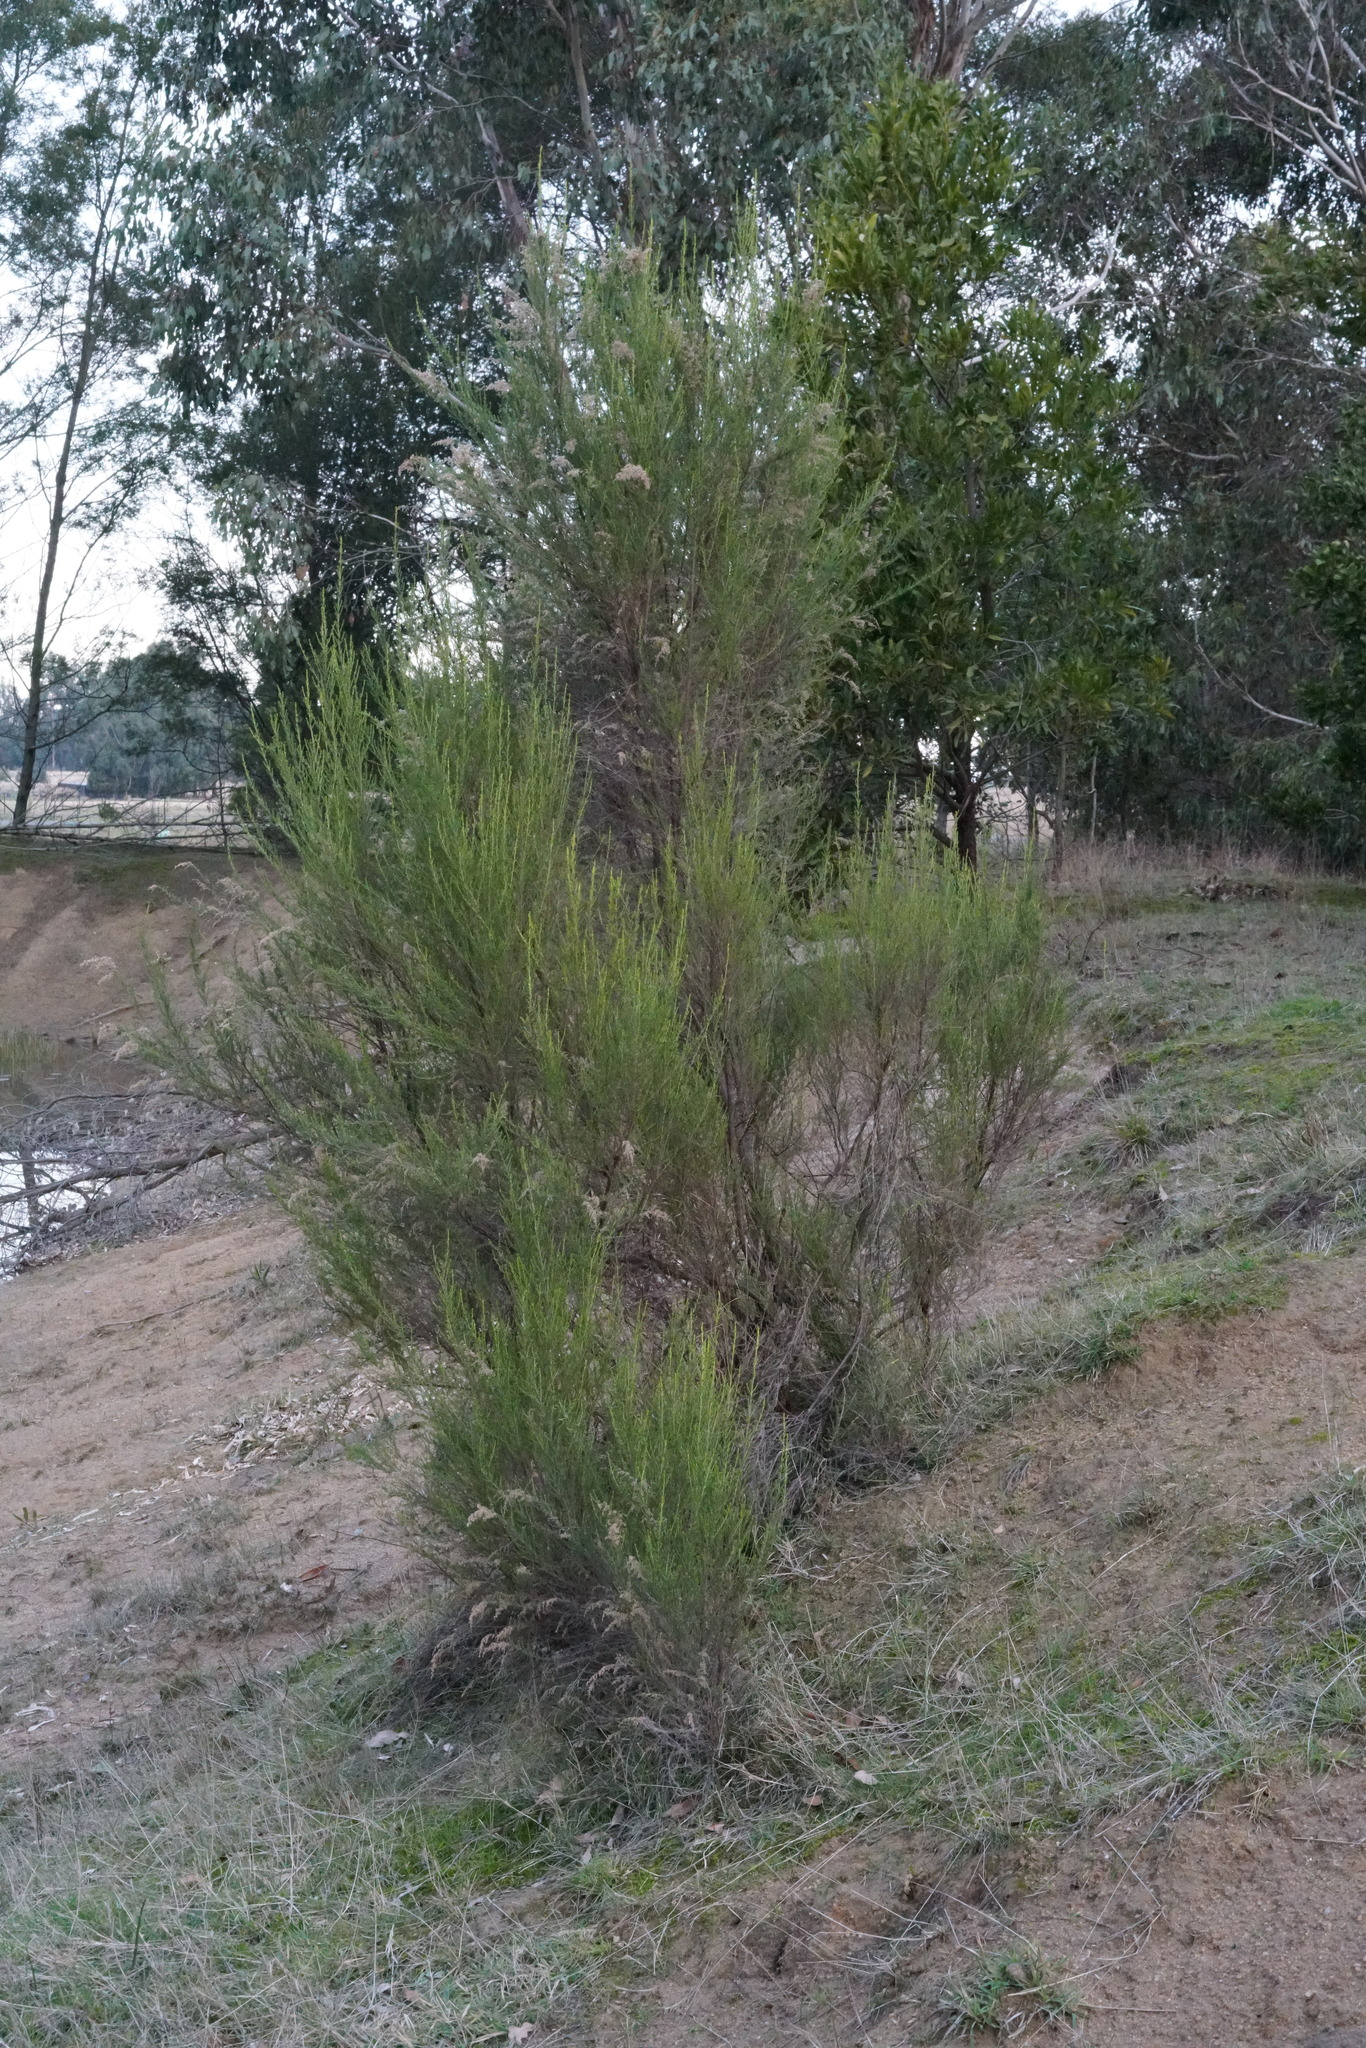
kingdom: Plantae
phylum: Tracheophyta
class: Magnoliopsida
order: Asterales
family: Asteraceae
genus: Cassinia
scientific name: Cassinia sifton
